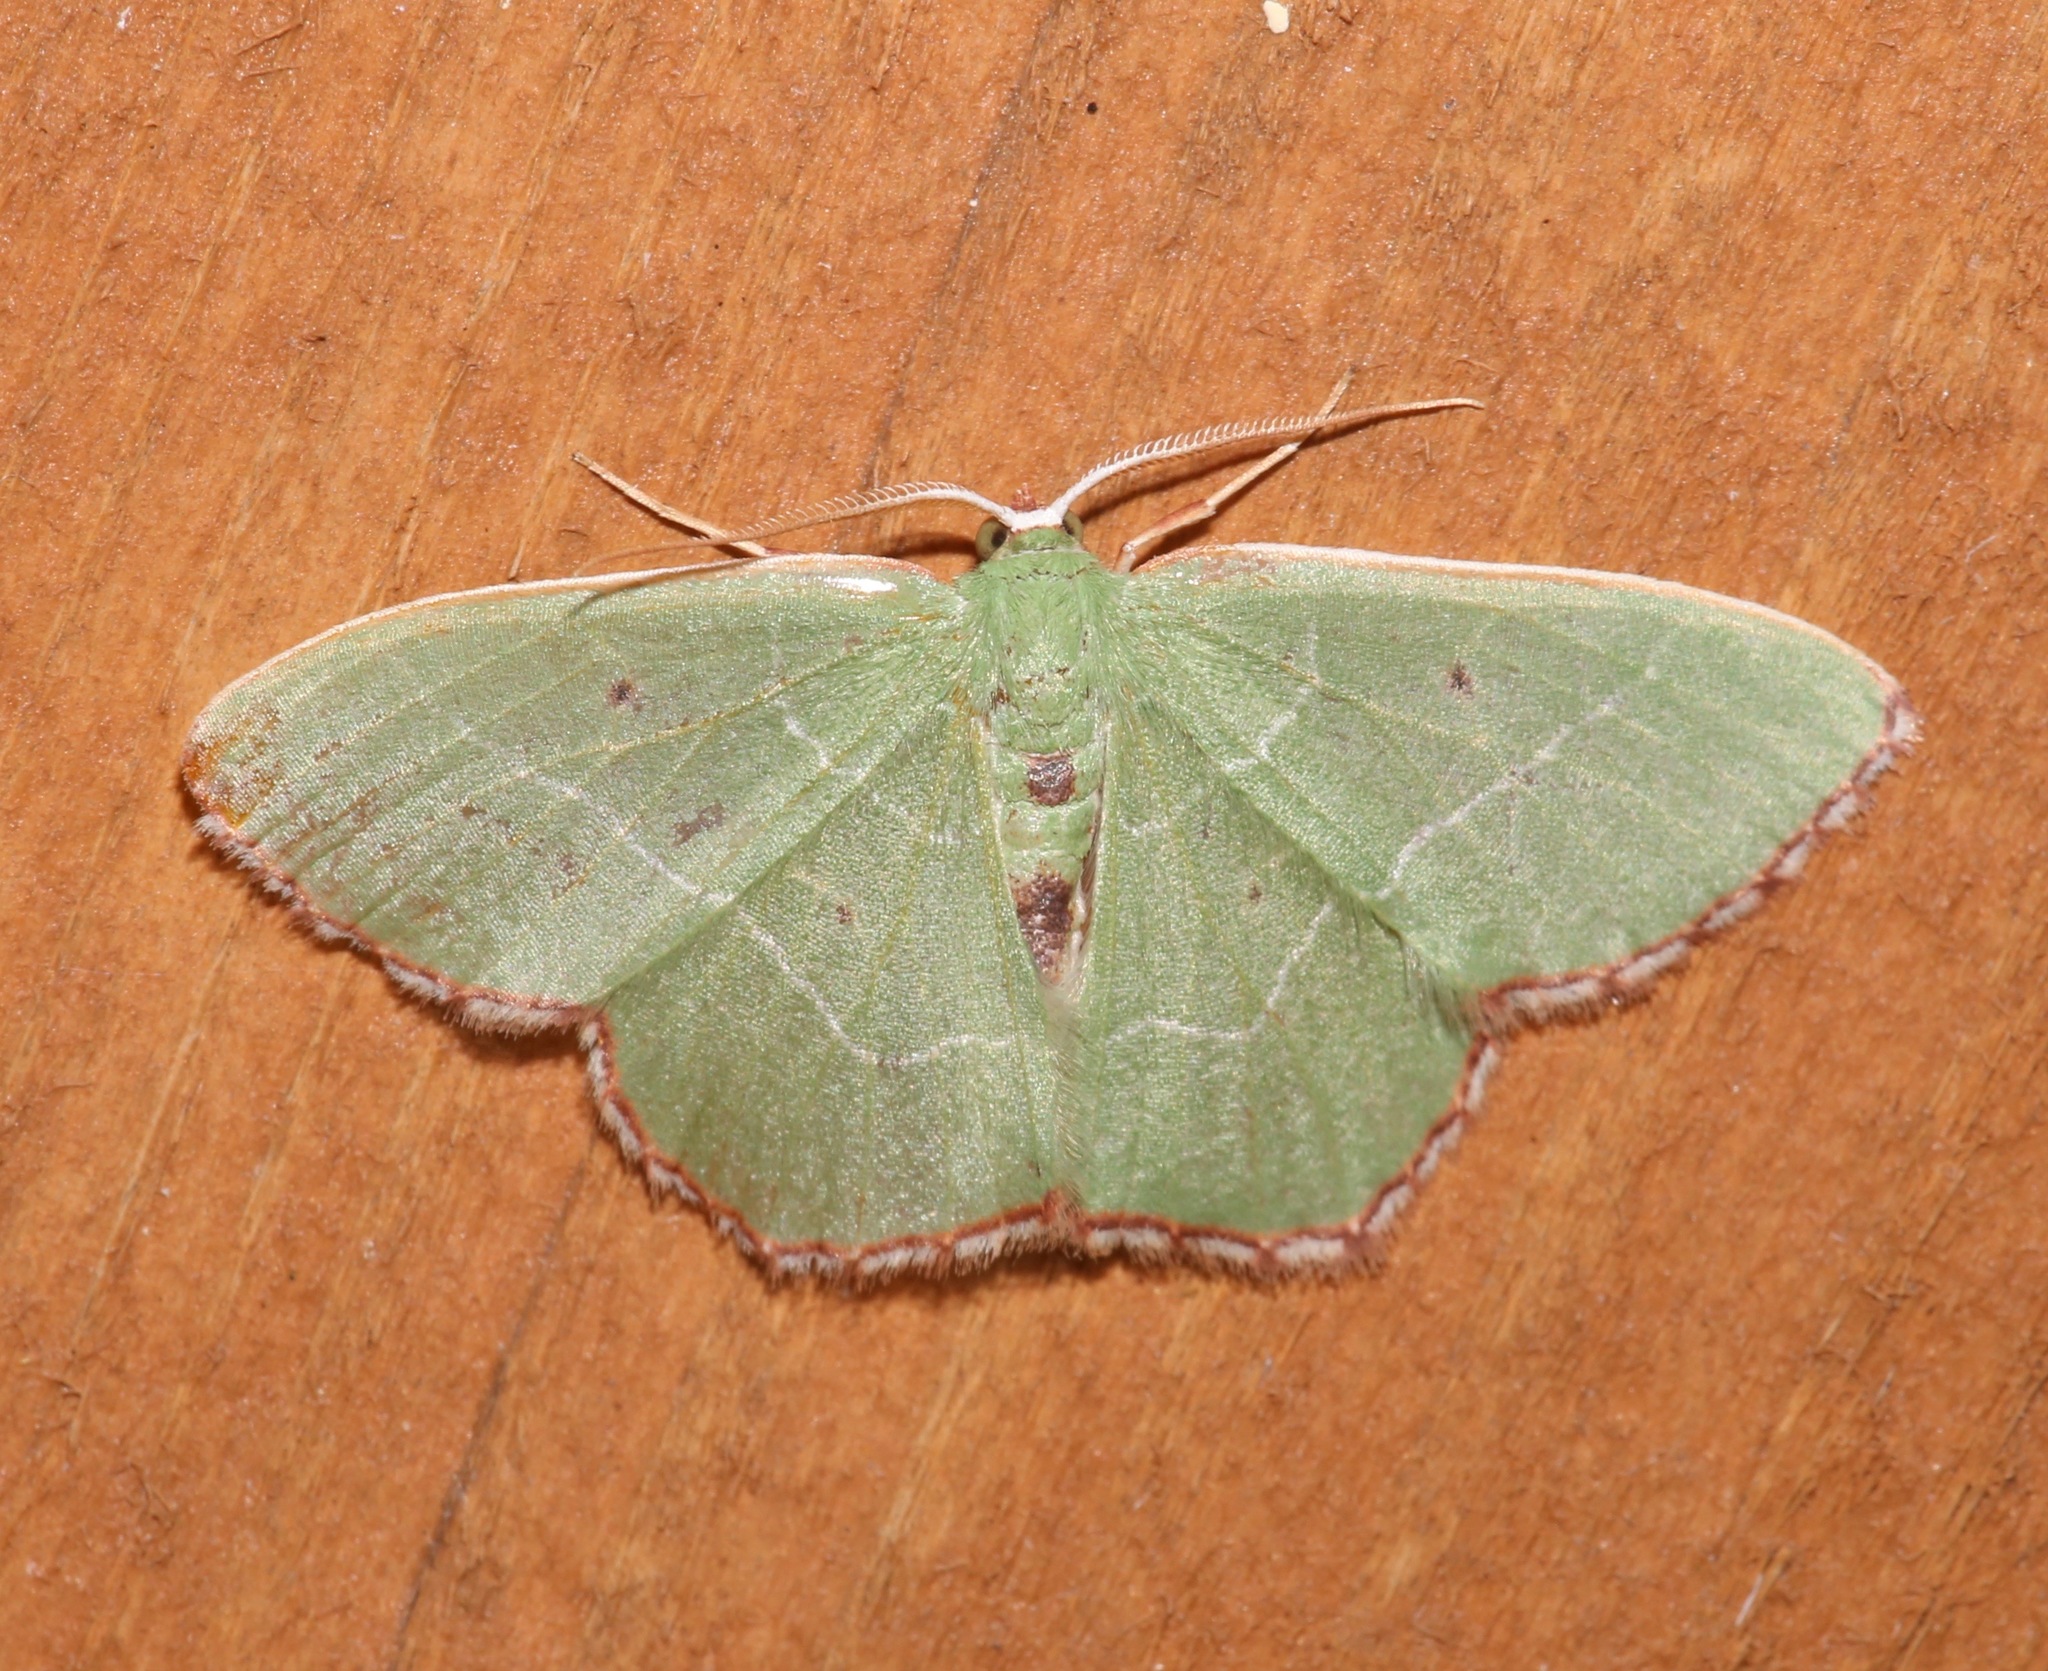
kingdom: Animalia
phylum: Arthropoda
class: Insecta
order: Lepidoptera
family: Geometridae
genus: Nemoria
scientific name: Nemoria saturiba
